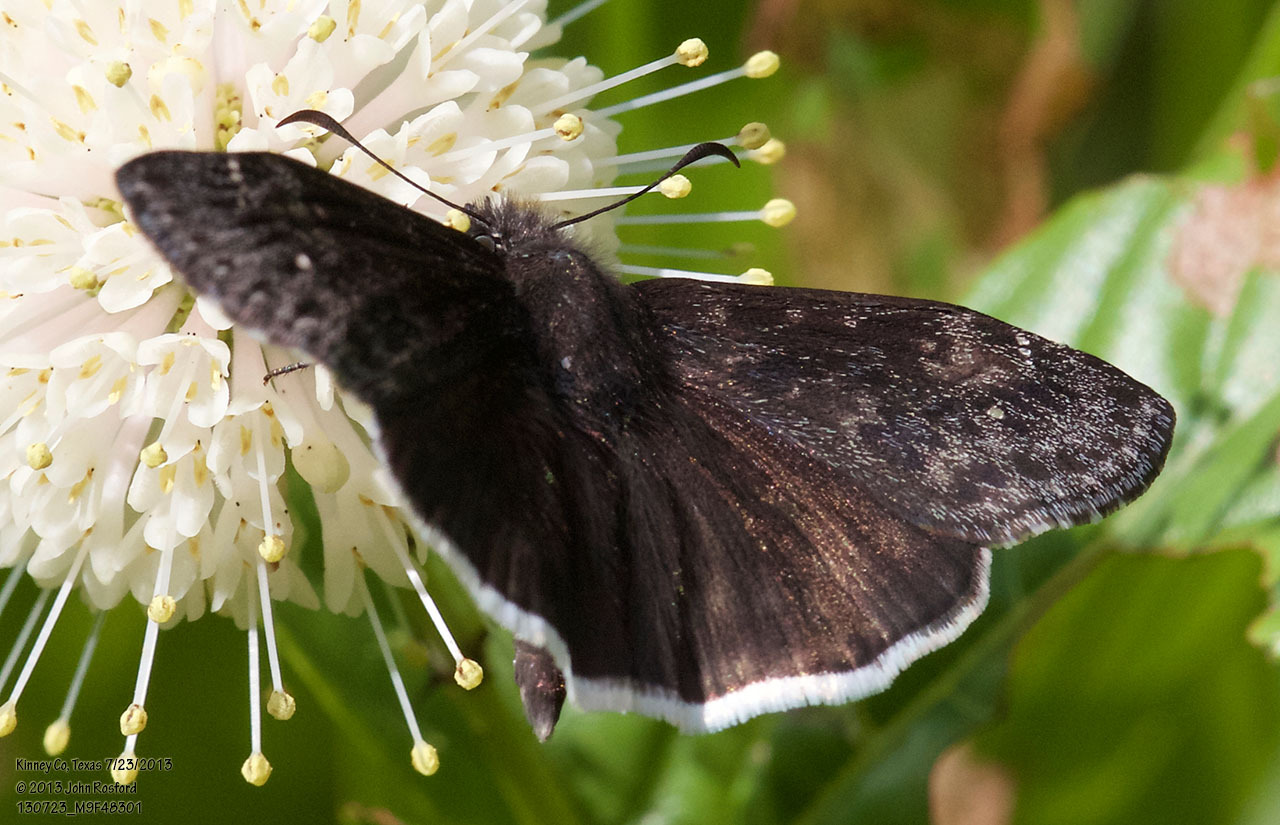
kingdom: Animalia
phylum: Arthropoda
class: Insecta
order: Lepidoptera
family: Hesperiidae
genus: Erynnis
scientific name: Erynnis funeralis
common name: Funereal duskywing
